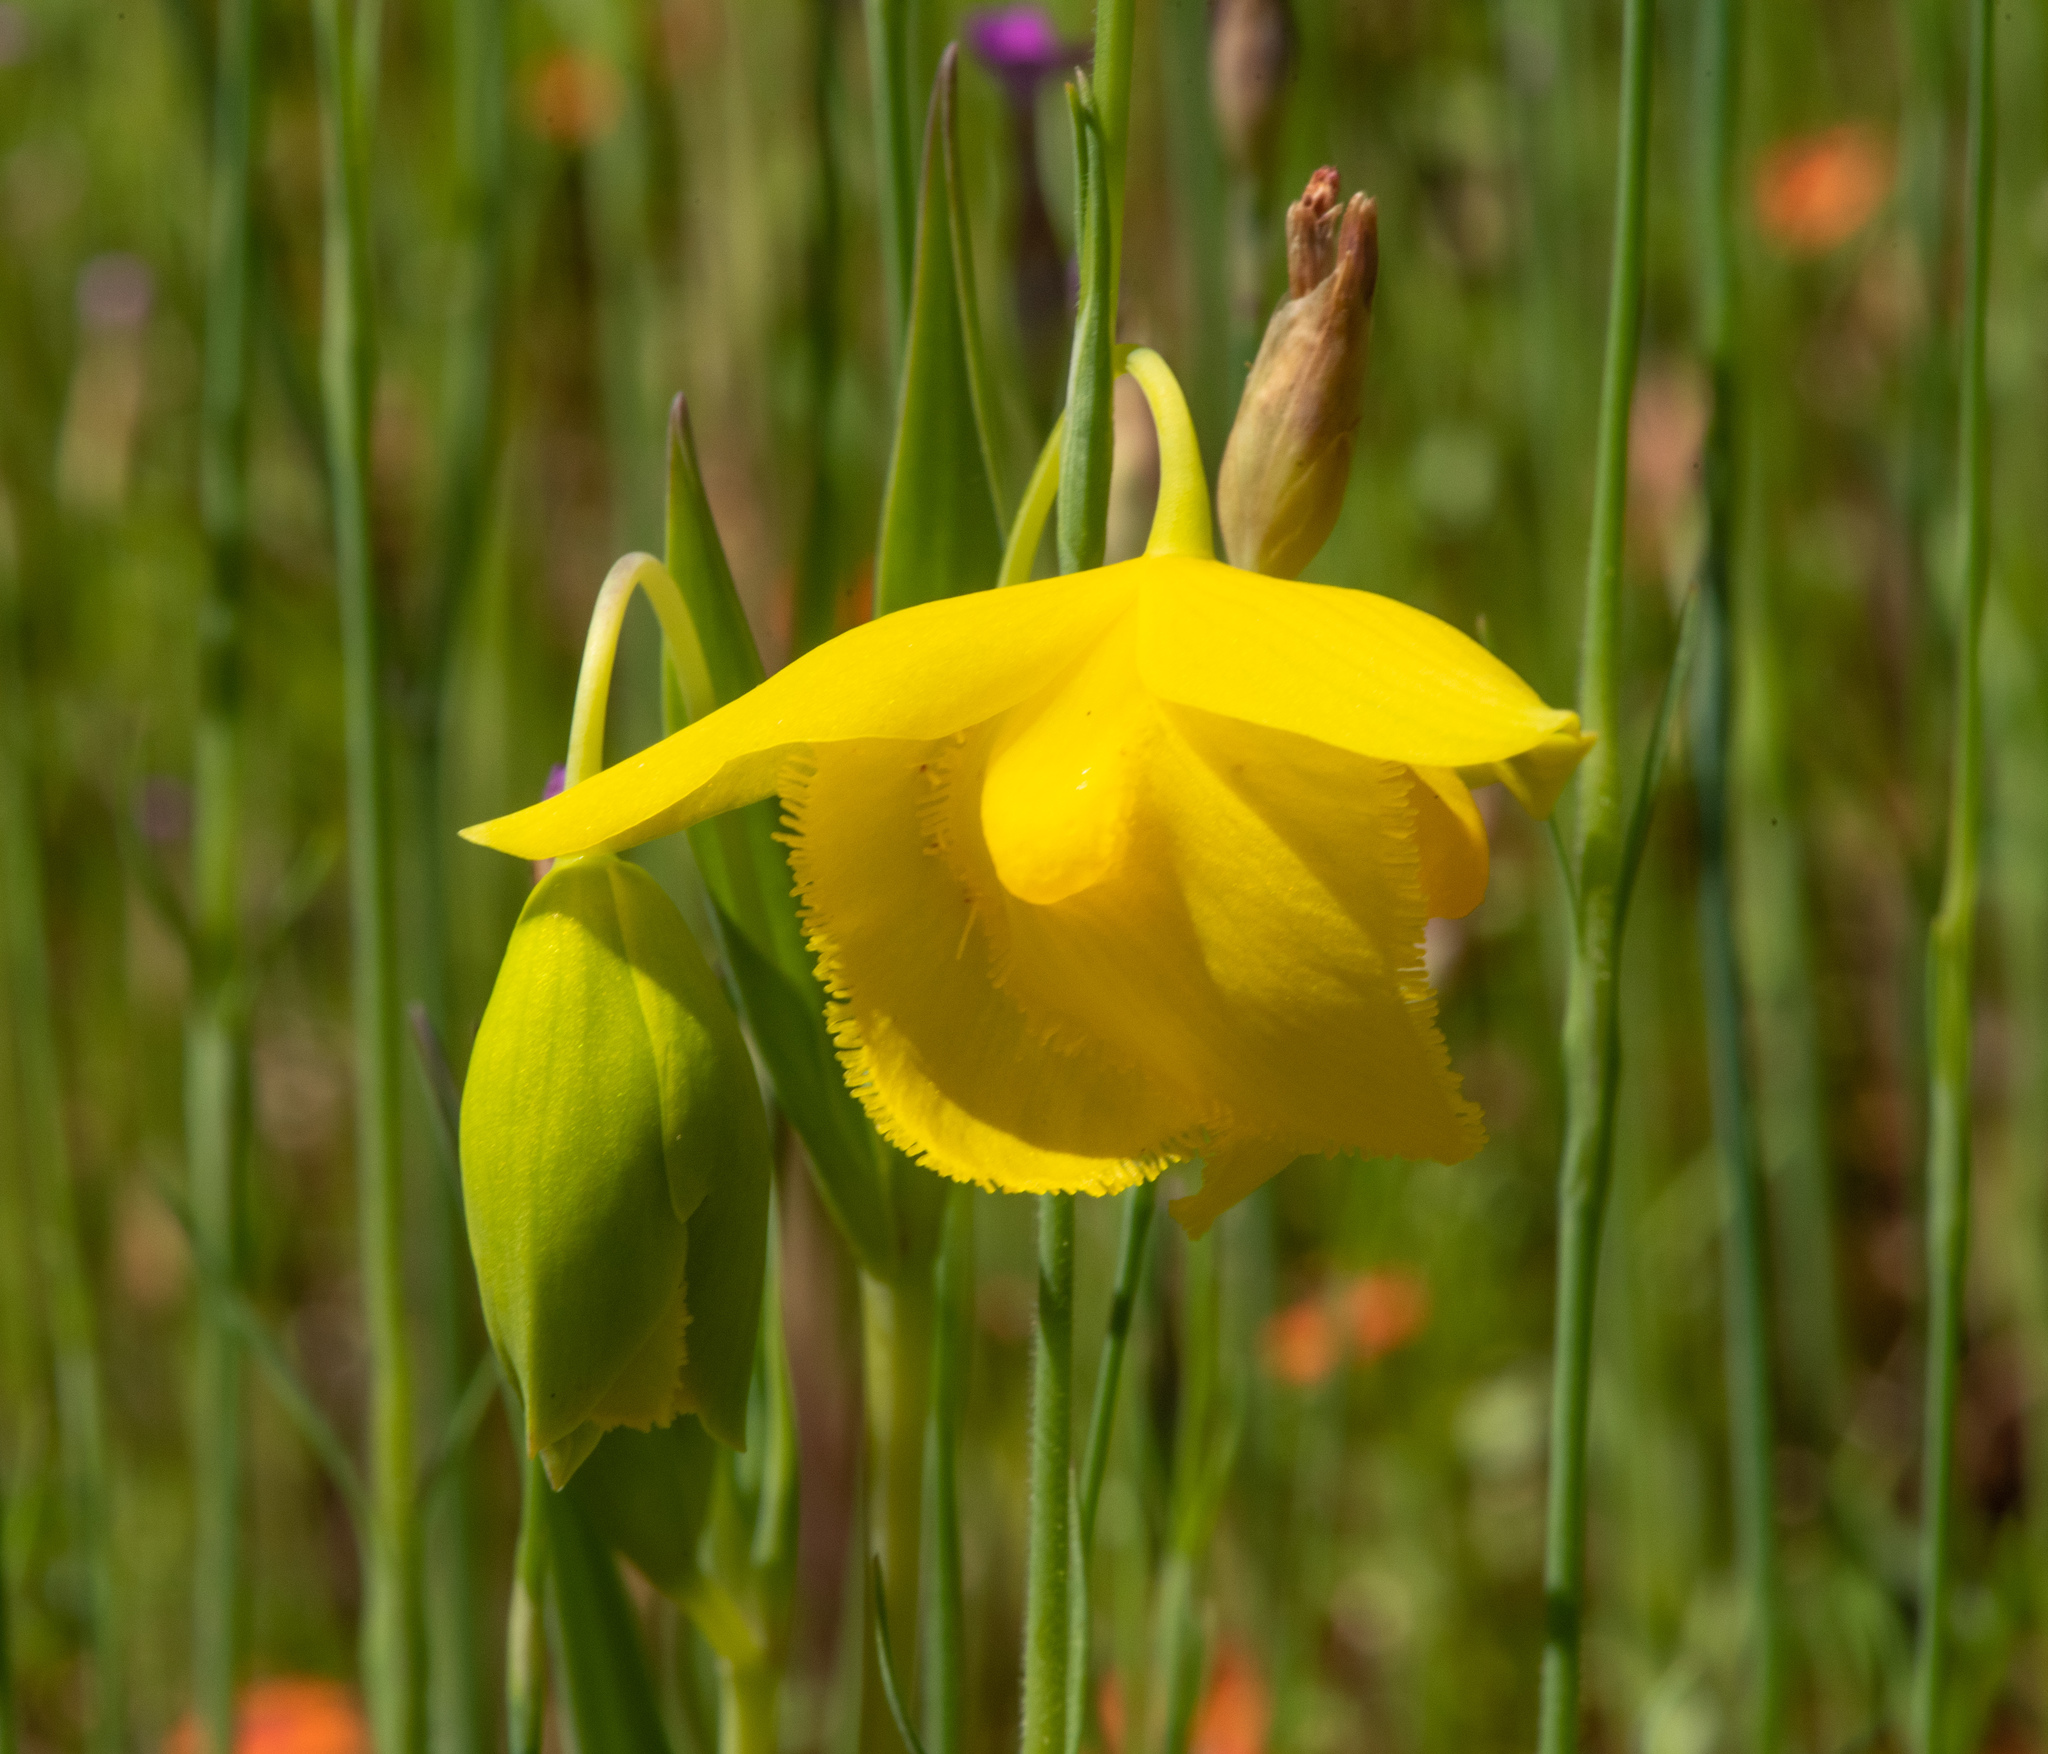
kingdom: Plantae
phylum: Tracheophyta
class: Liliopsida
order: Liliales
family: Liliaceae
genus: Calochortus
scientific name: Calochortus amabilis
